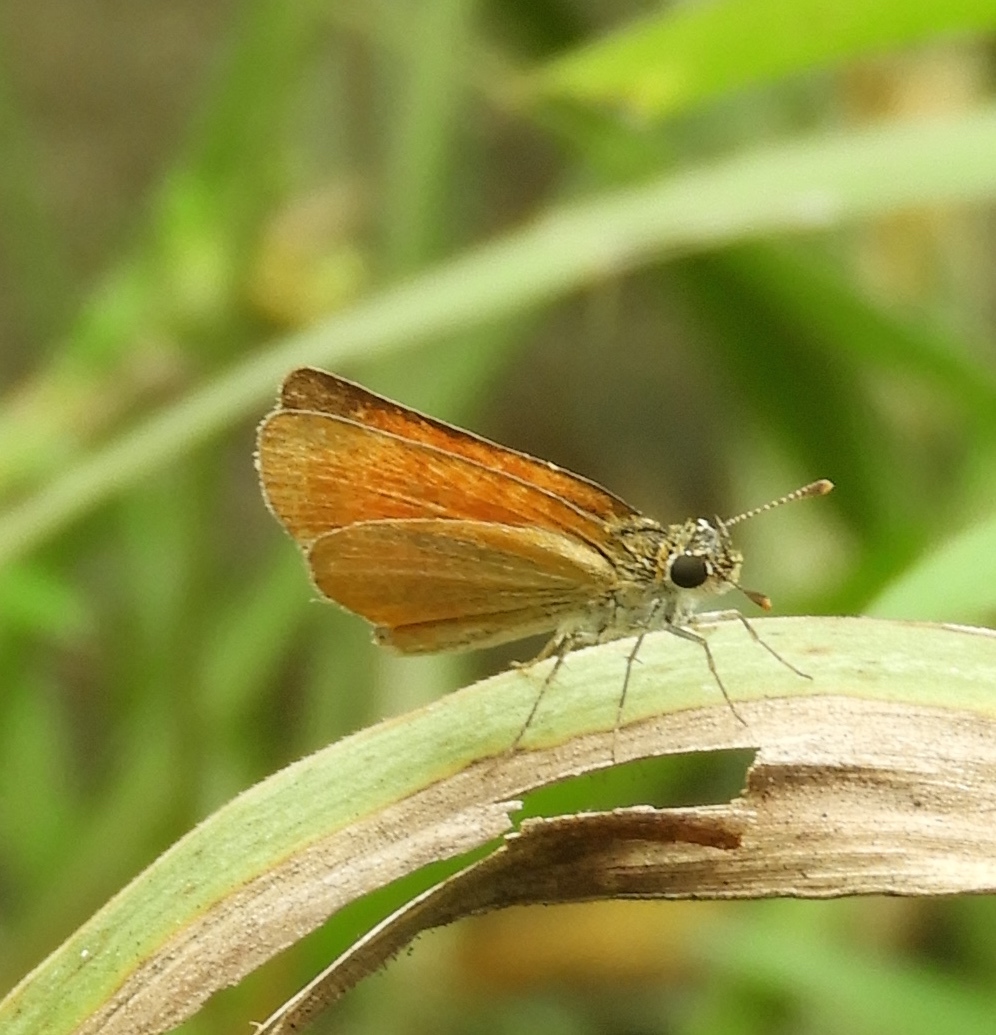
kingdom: Animalia
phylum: Arthropoda
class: Insecta
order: Lepidoptera
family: Hesperiidae
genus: Ancyloxypha
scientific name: Ancyloxypha arene
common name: Tropical least skipper
